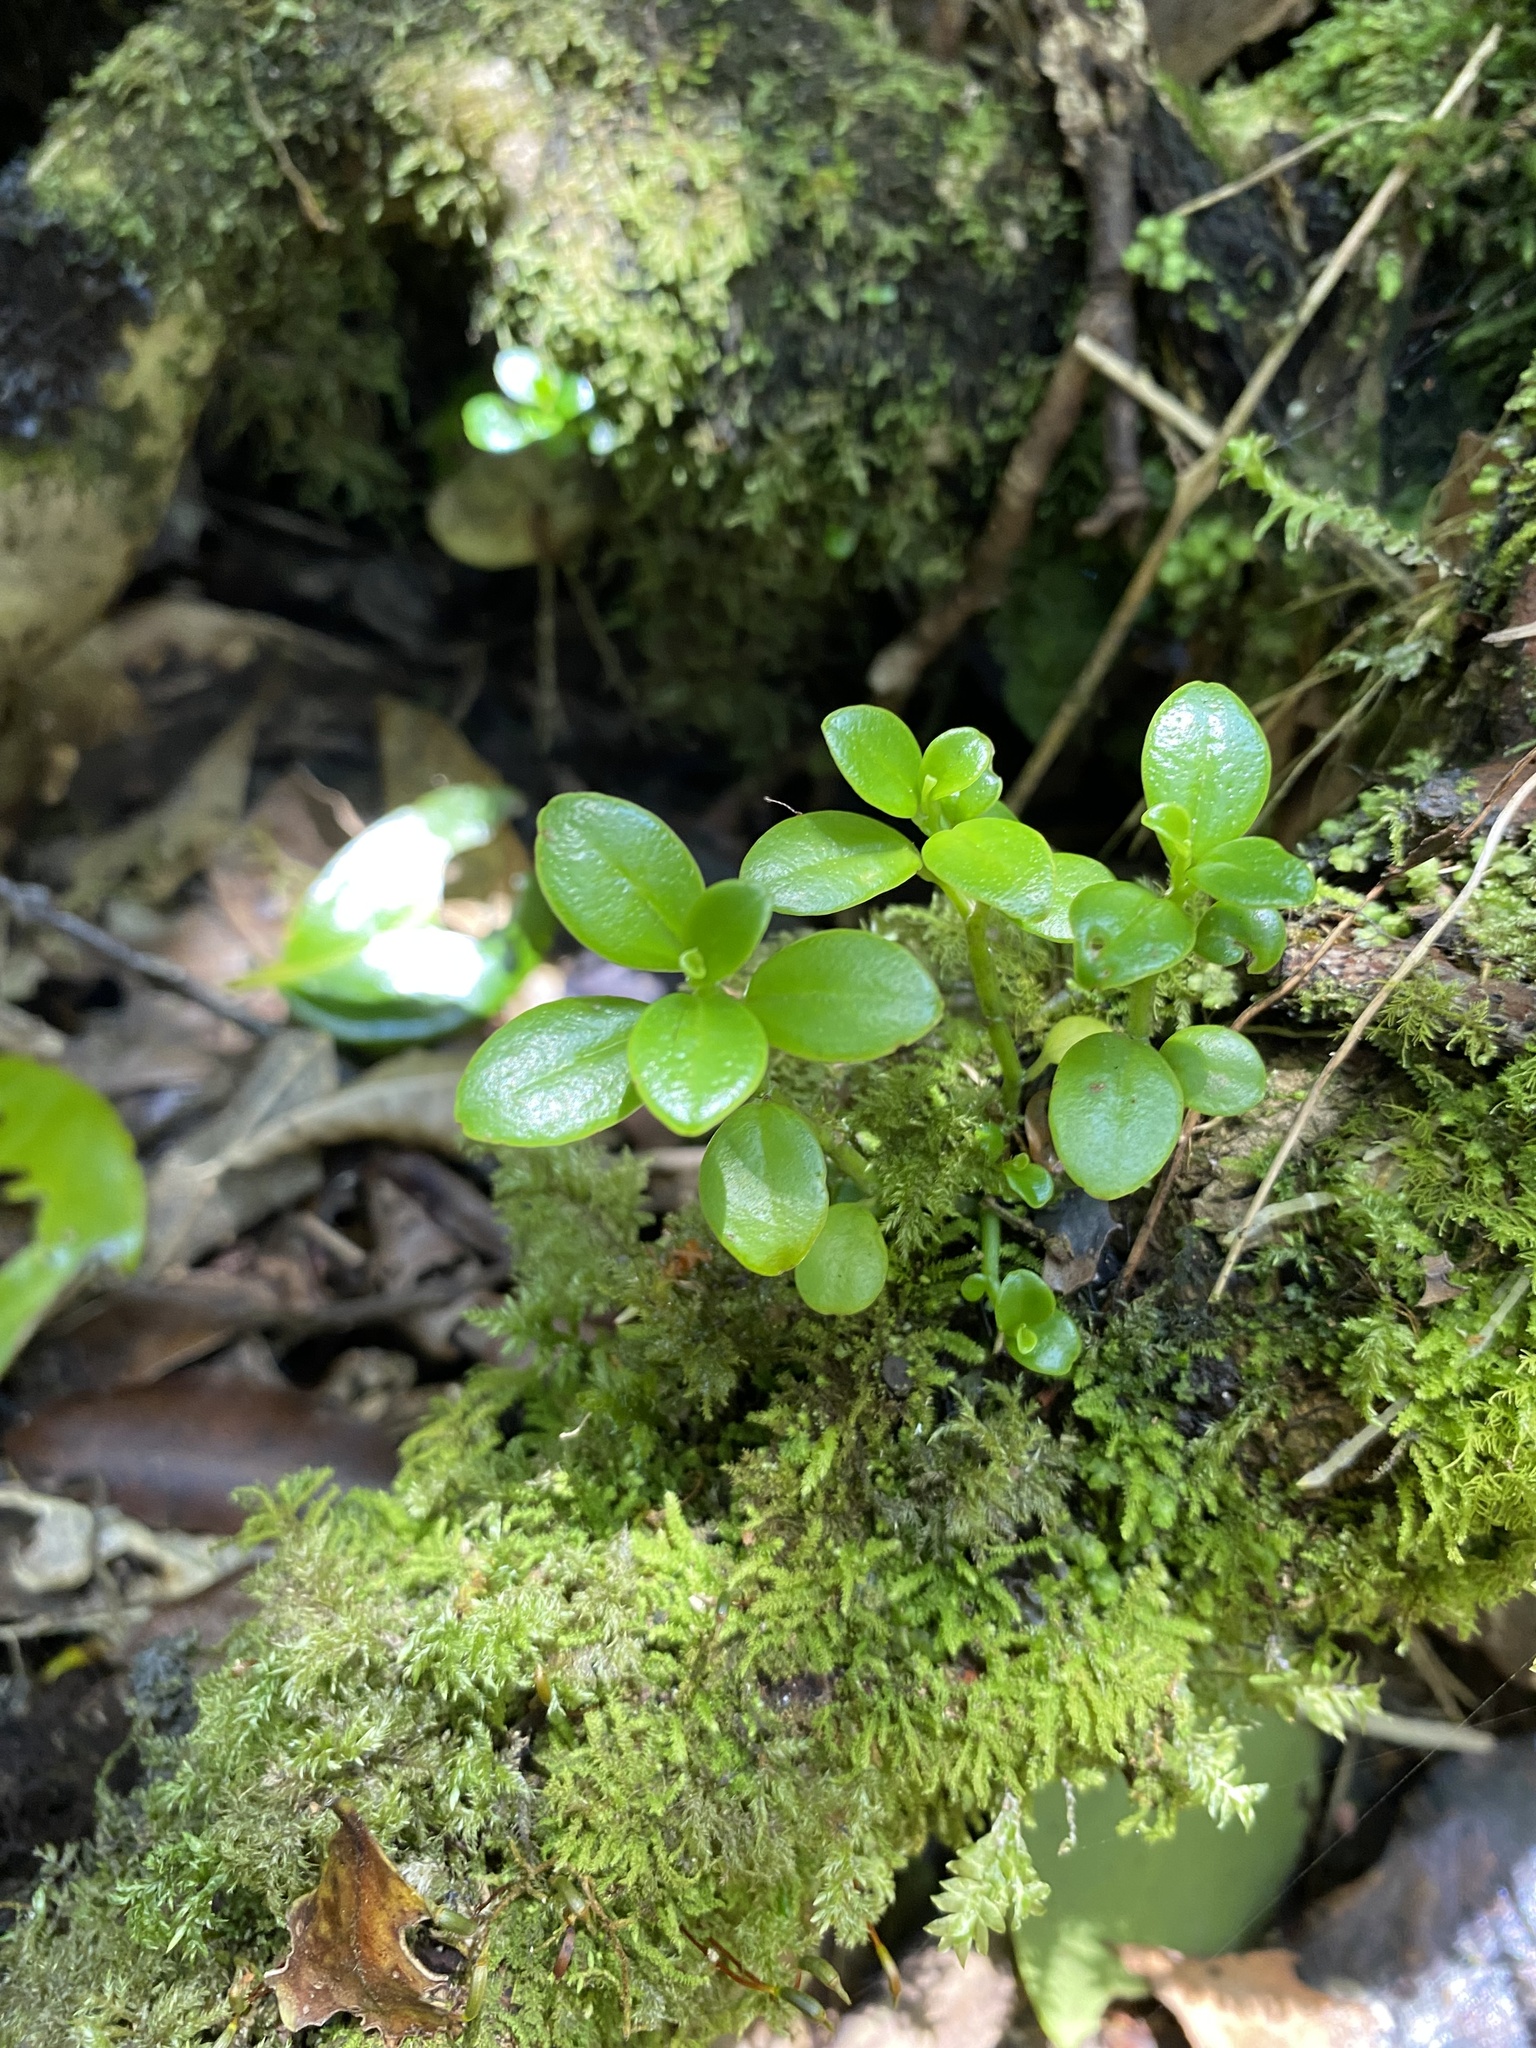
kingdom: Plantae
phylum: Tracheophyta
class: Magnoliopsida
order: Piperales
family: Piperaceae
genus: Peperomia
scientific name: Peperomia urvilleana
